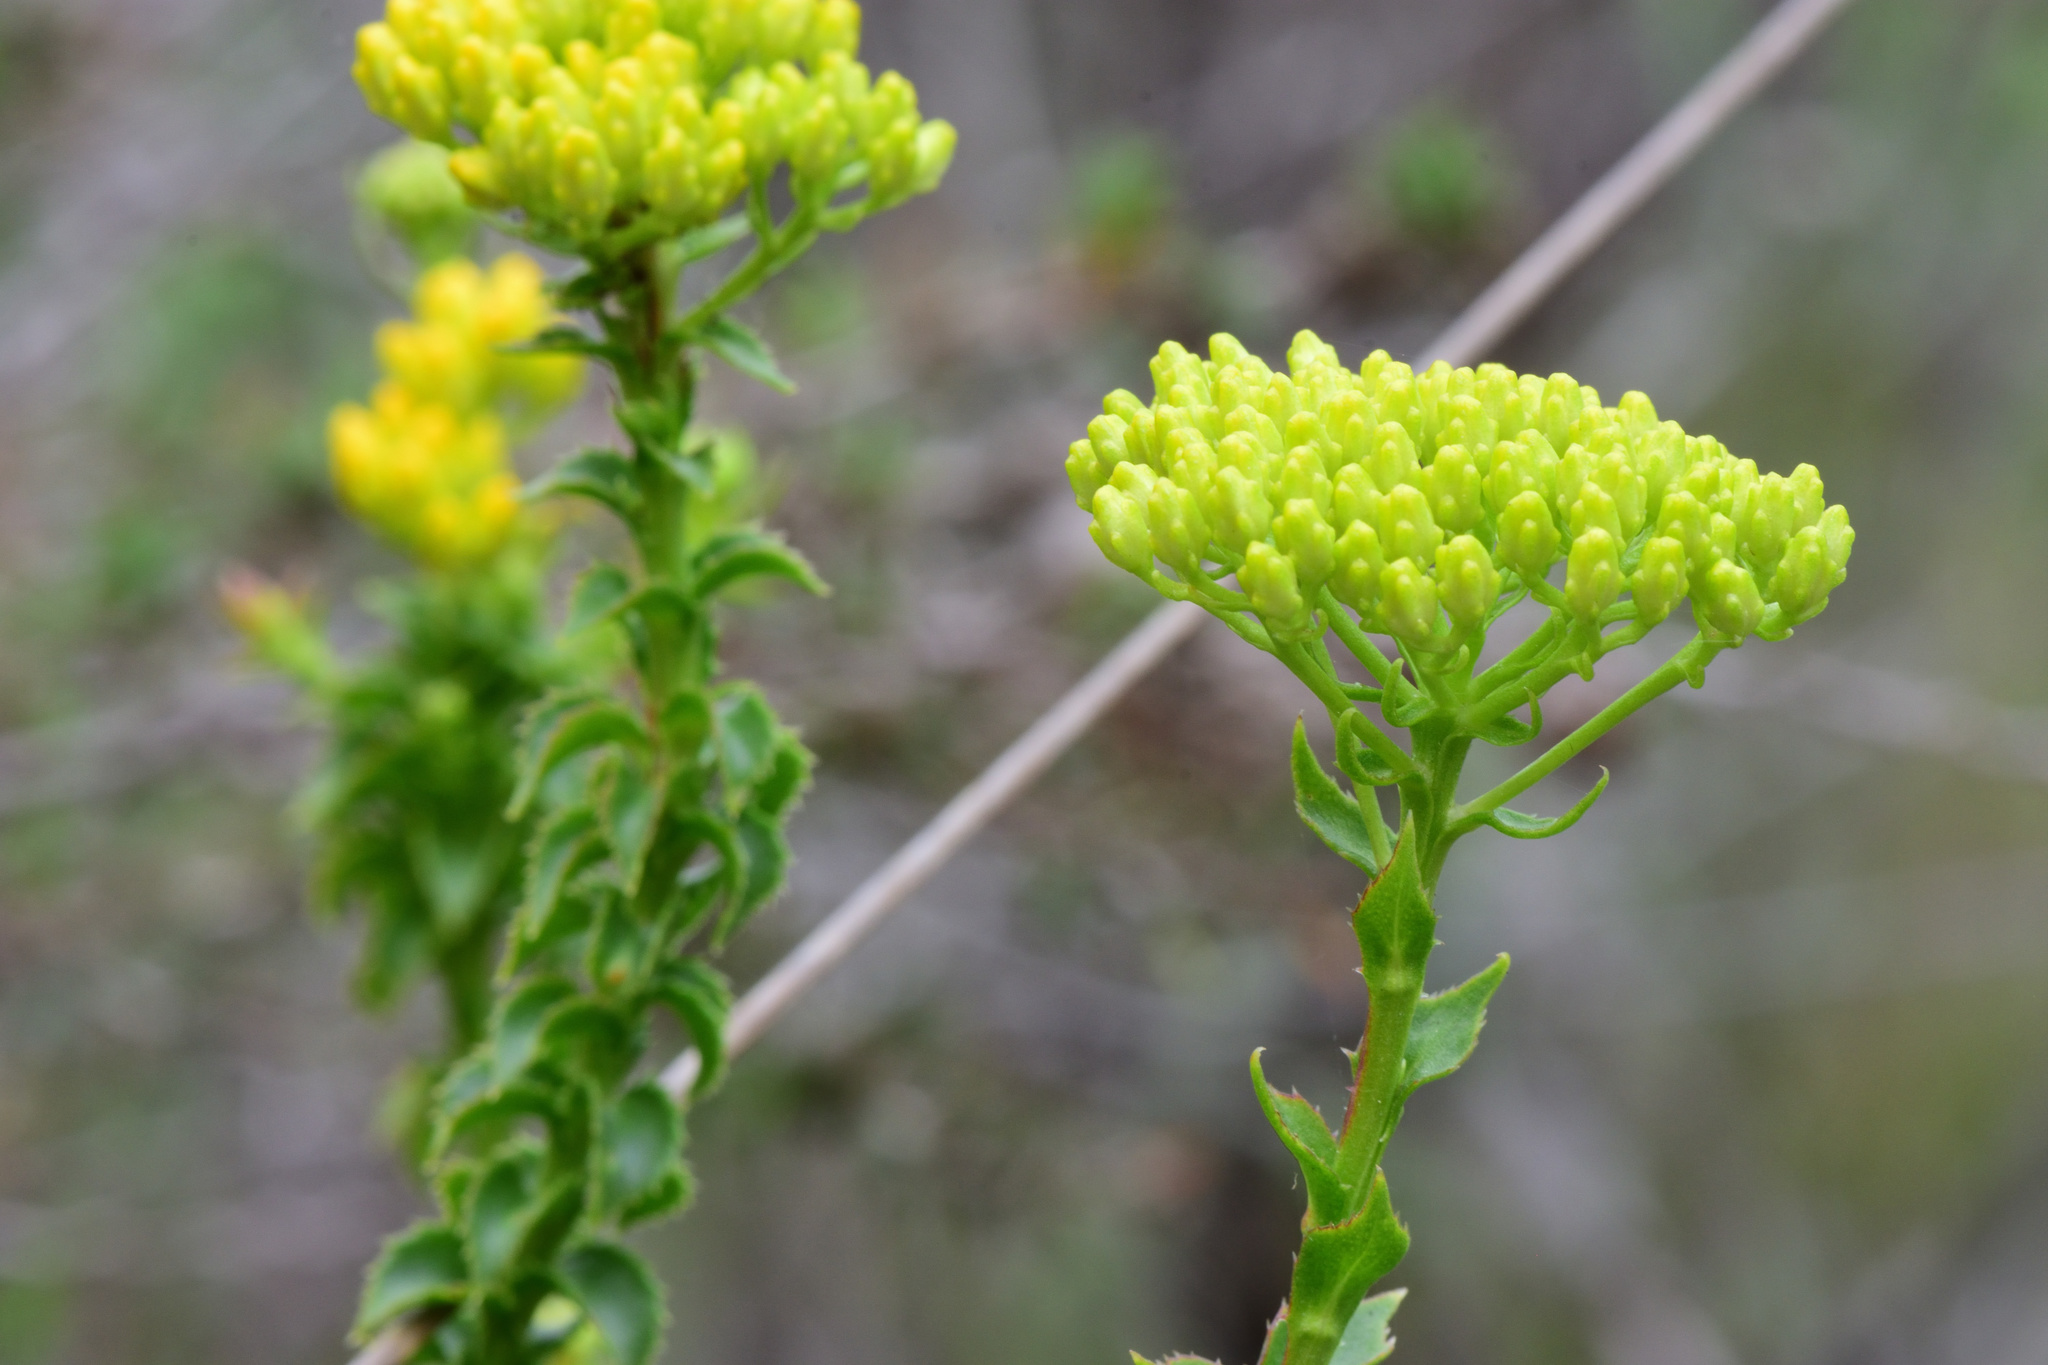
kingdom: Plantae
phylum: Tracheophyta
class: Magnoliopsida
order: Asterales
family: Asteraceae
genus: Athanasia
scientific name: Athanasia dentata
